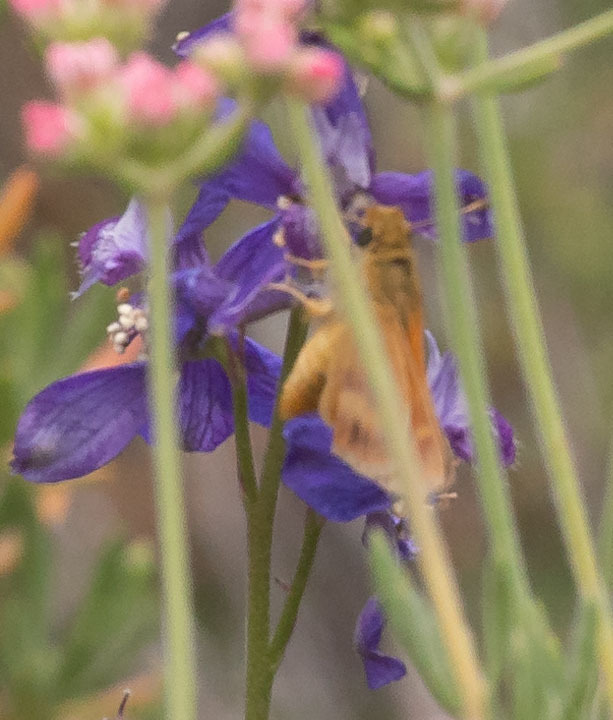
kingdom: Animalia
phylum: Arthropoda
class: Insecta
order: Lepidoptera
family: Hesperiidae
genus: Ochlodes
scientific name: Ochlodes agricola
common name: Rural skipper
